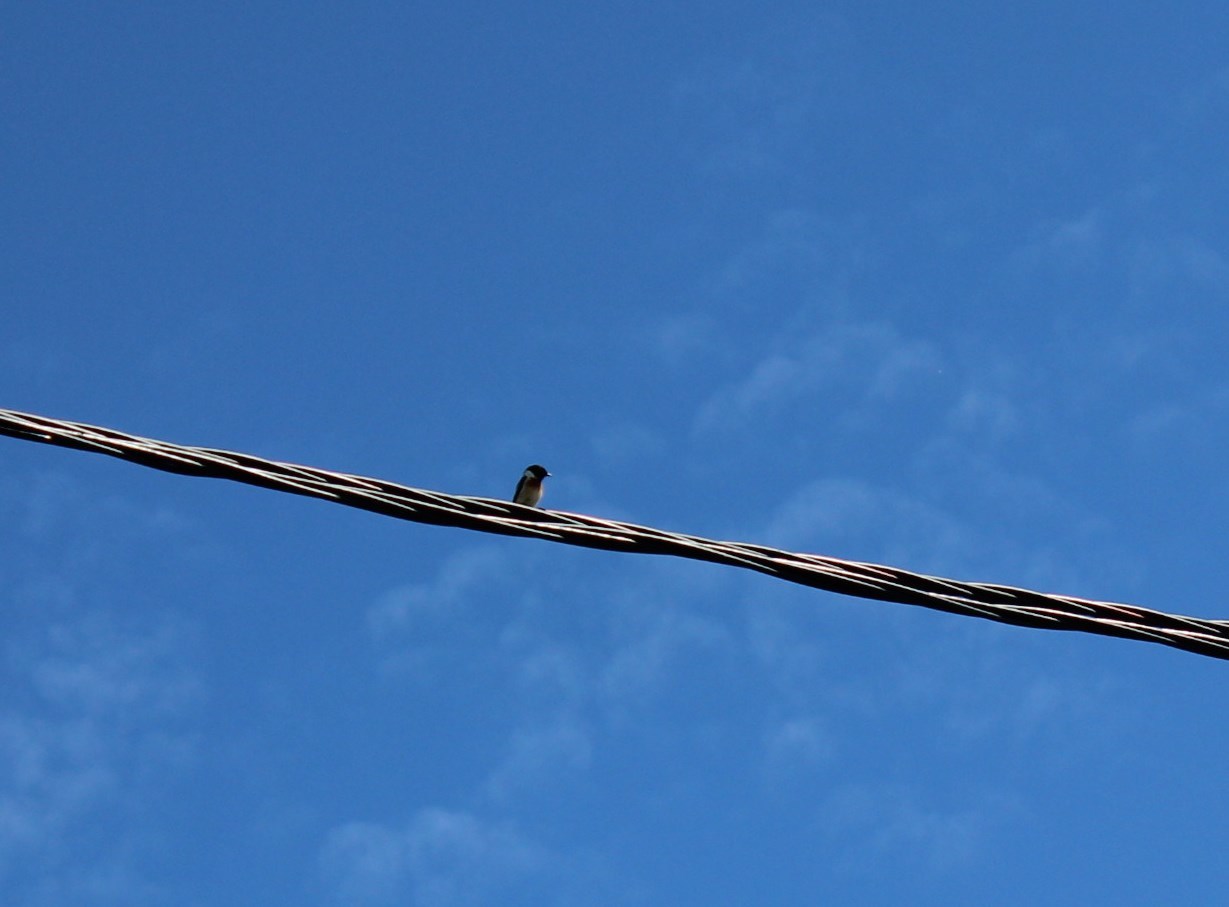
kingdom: Animalia
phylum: Chordata
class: Aves
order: Passeriformes
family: Muscicapidae
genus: Saxicola
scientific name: Saxicola maurus
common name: Siberian stonechat
